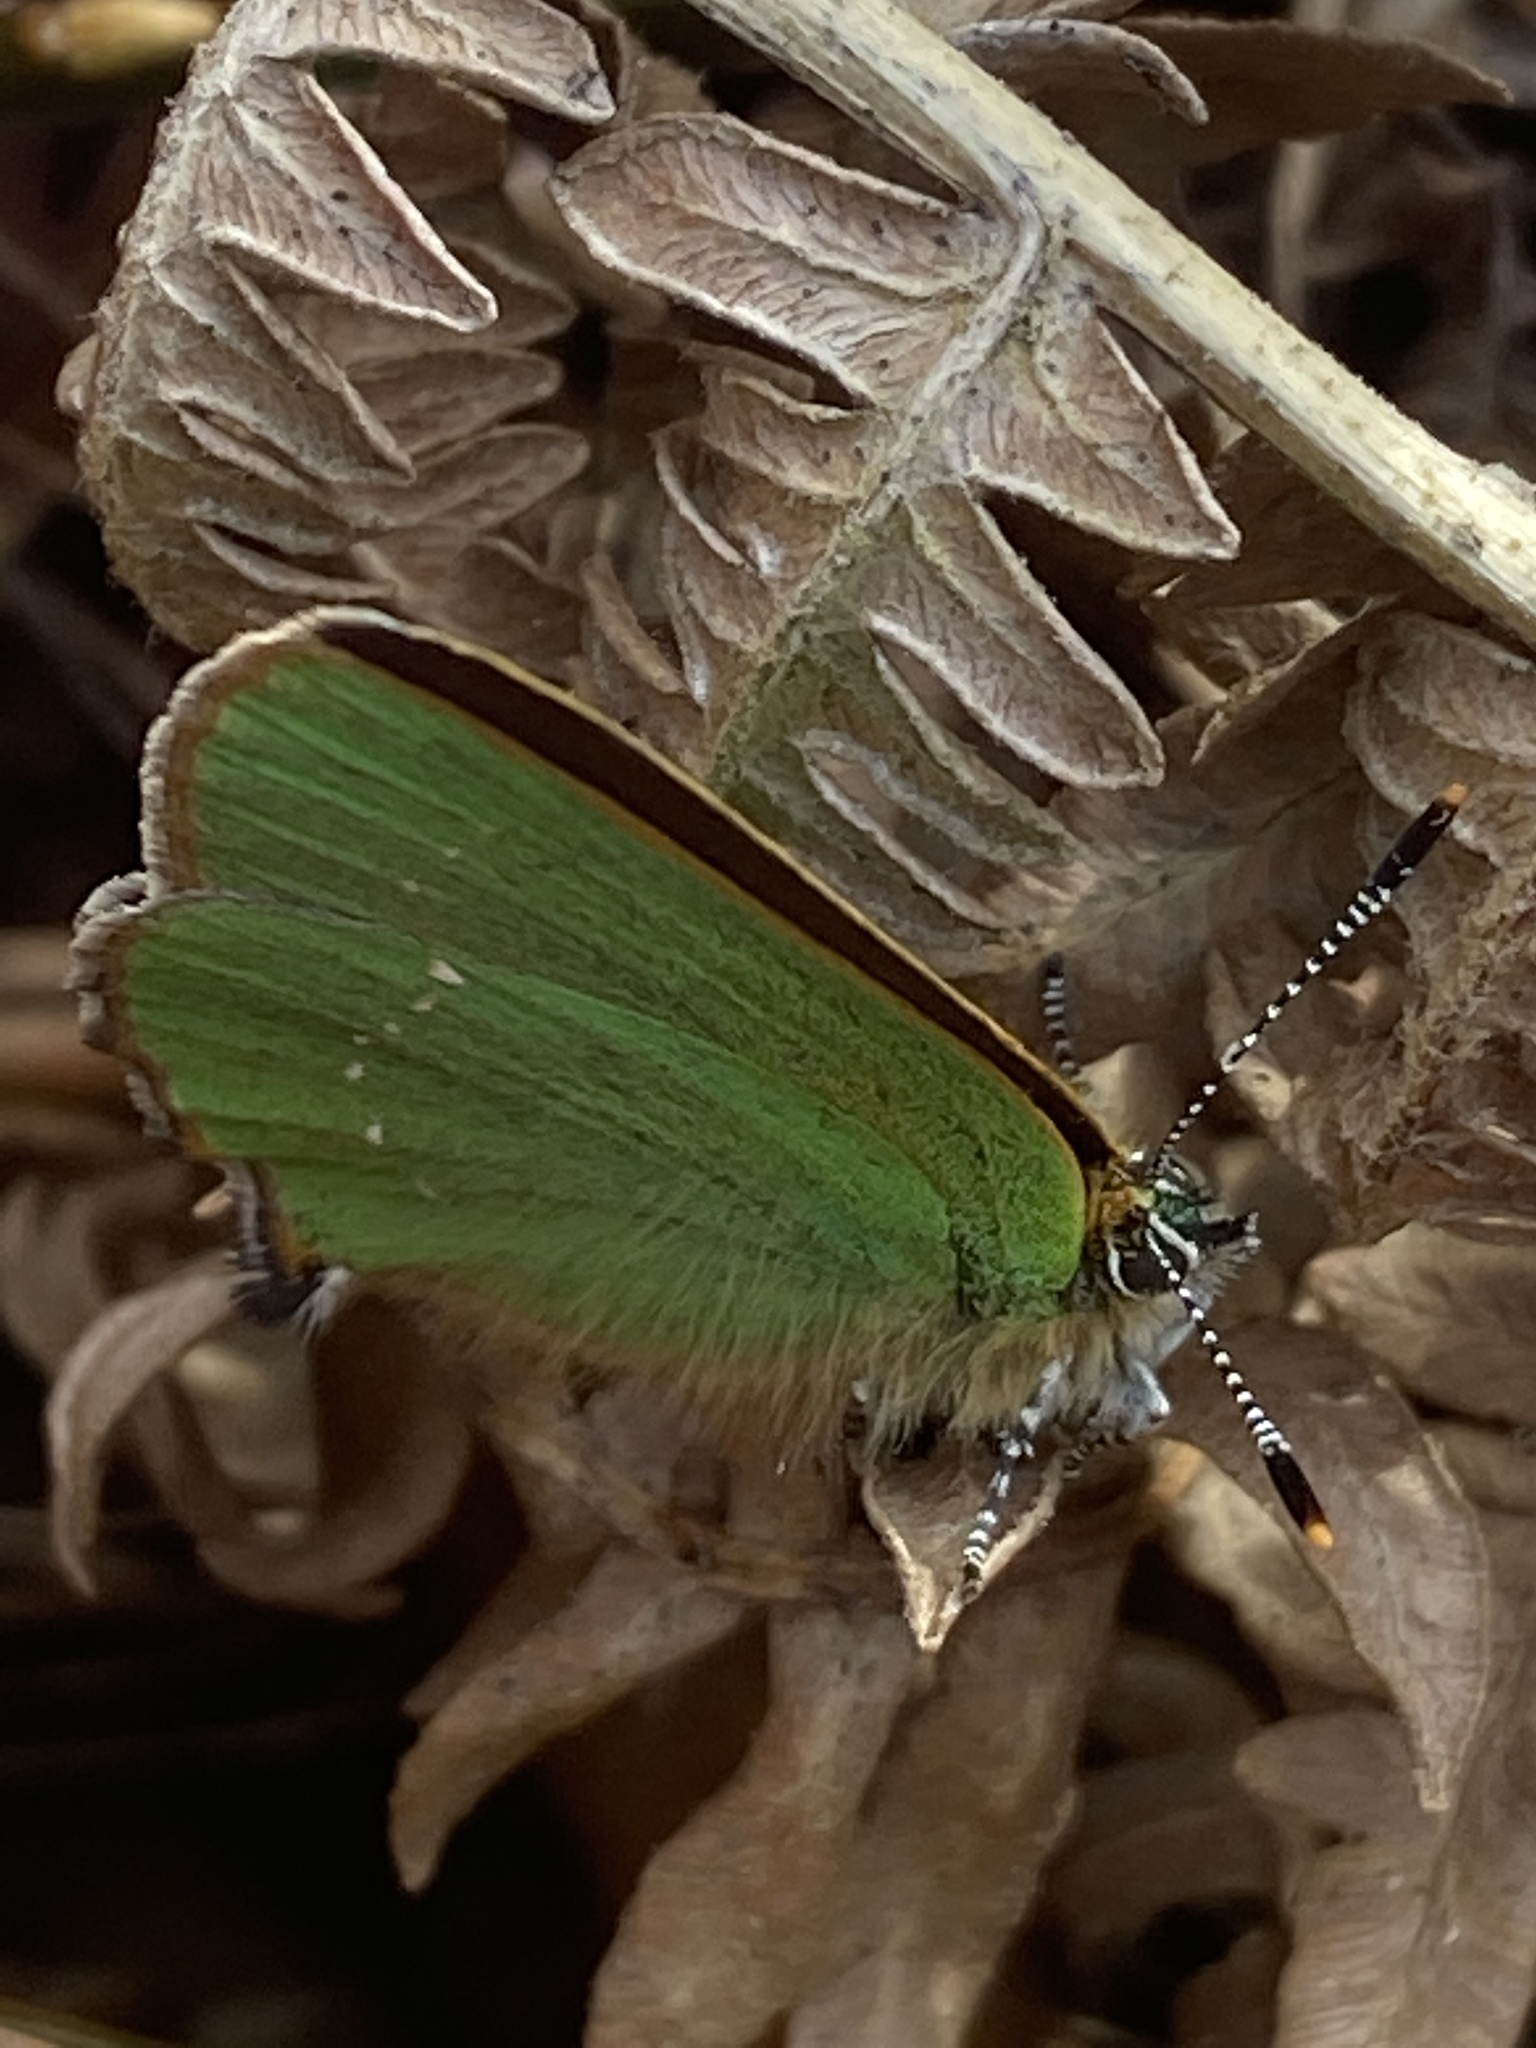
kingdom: Animalia
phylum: Arthropoda
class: Insecta
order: Lepidoptera
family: Lycaenidae
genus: Callophrys
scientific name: Callophrys rubi
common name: Green hairstreak
